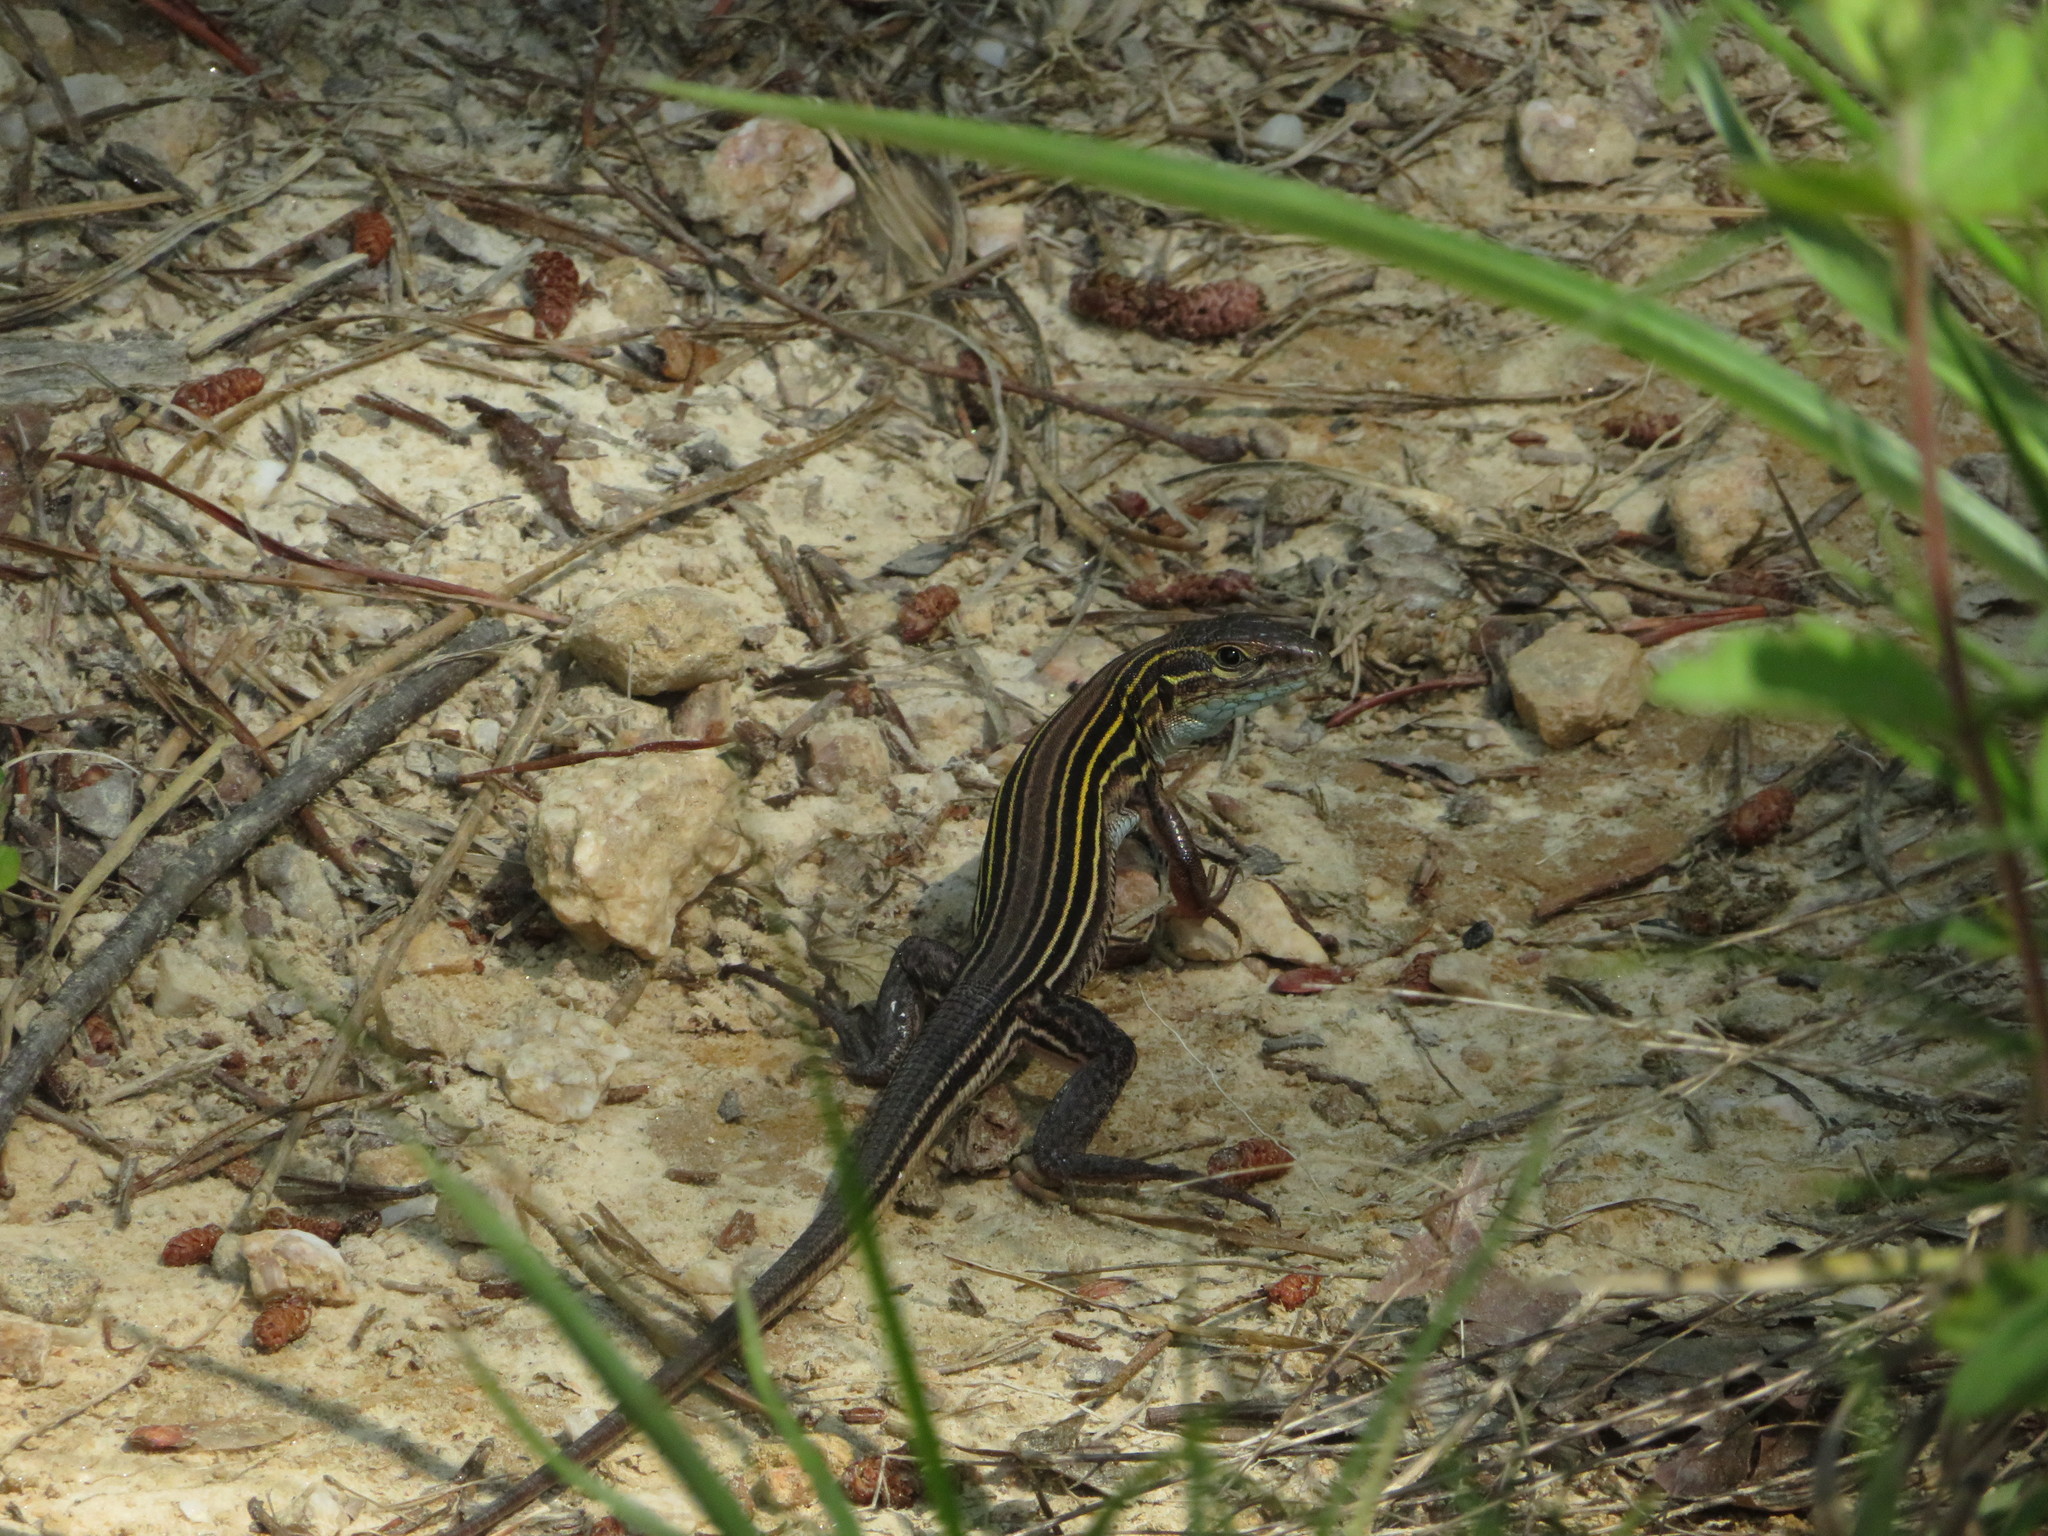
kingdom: Animalia
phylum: Chordata
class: Squamata
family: Teiidae
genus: Aspidoscelis
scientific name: Aspidoscelis sexlineatus
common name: Six-lined racerunner
